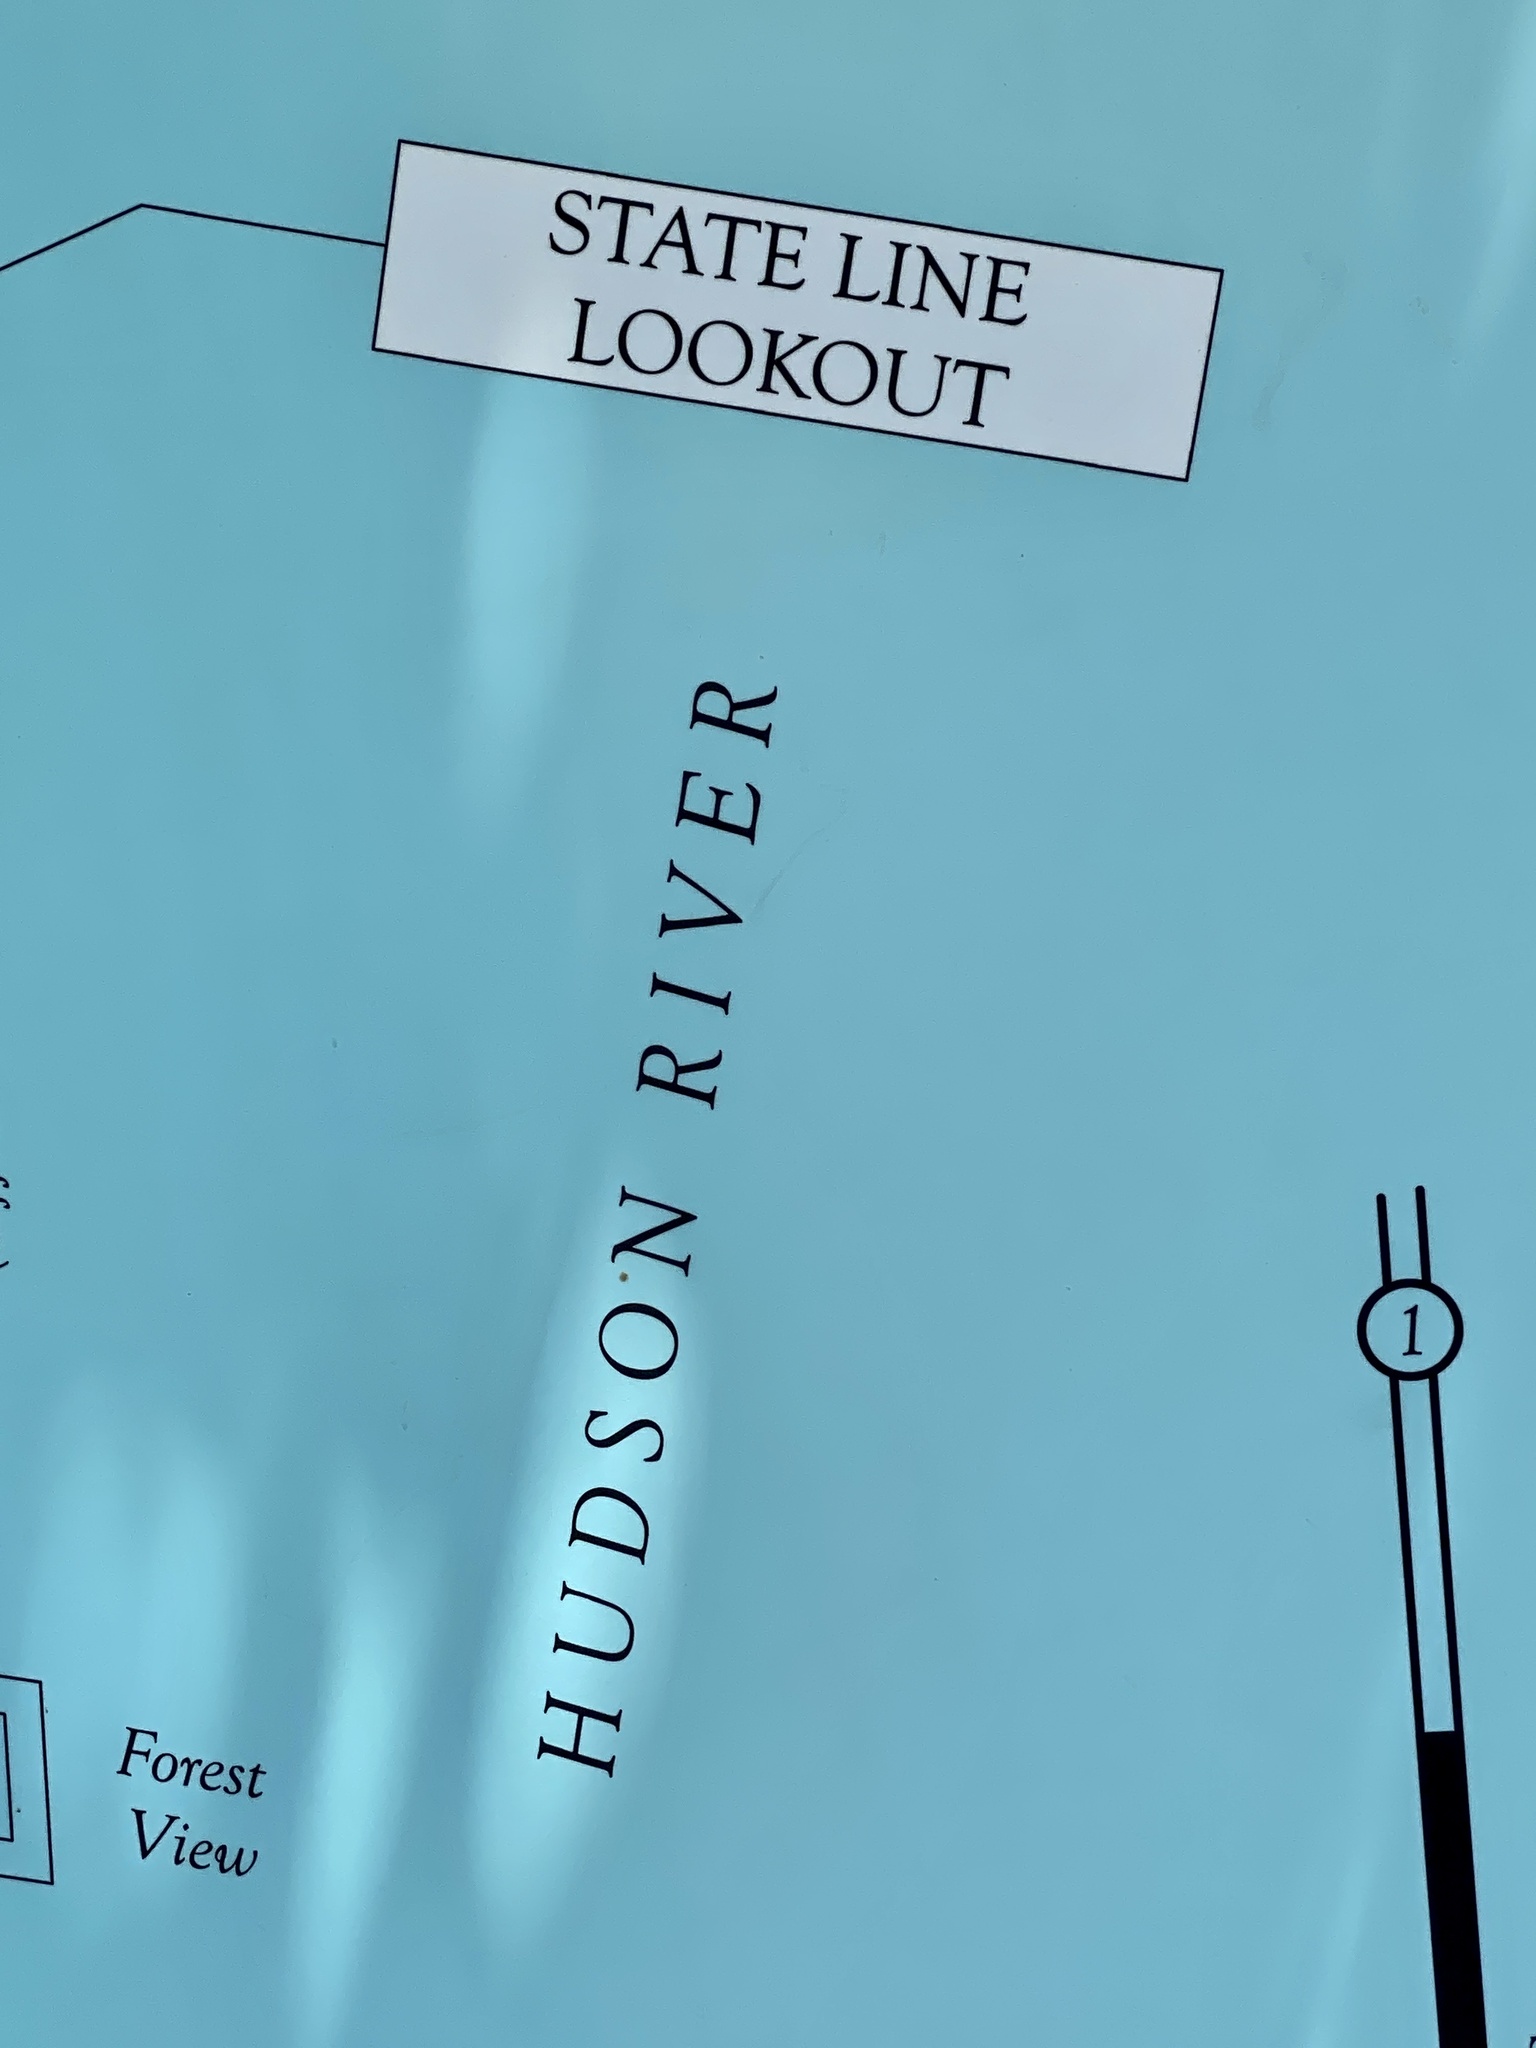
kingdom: Plantae
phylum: Tracheophyta
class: Magnoliopsida
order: Lamiales
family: Paulowniaceae
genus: Paulownia
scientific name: Paulownia tomentosa
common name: Foxglove-tree
